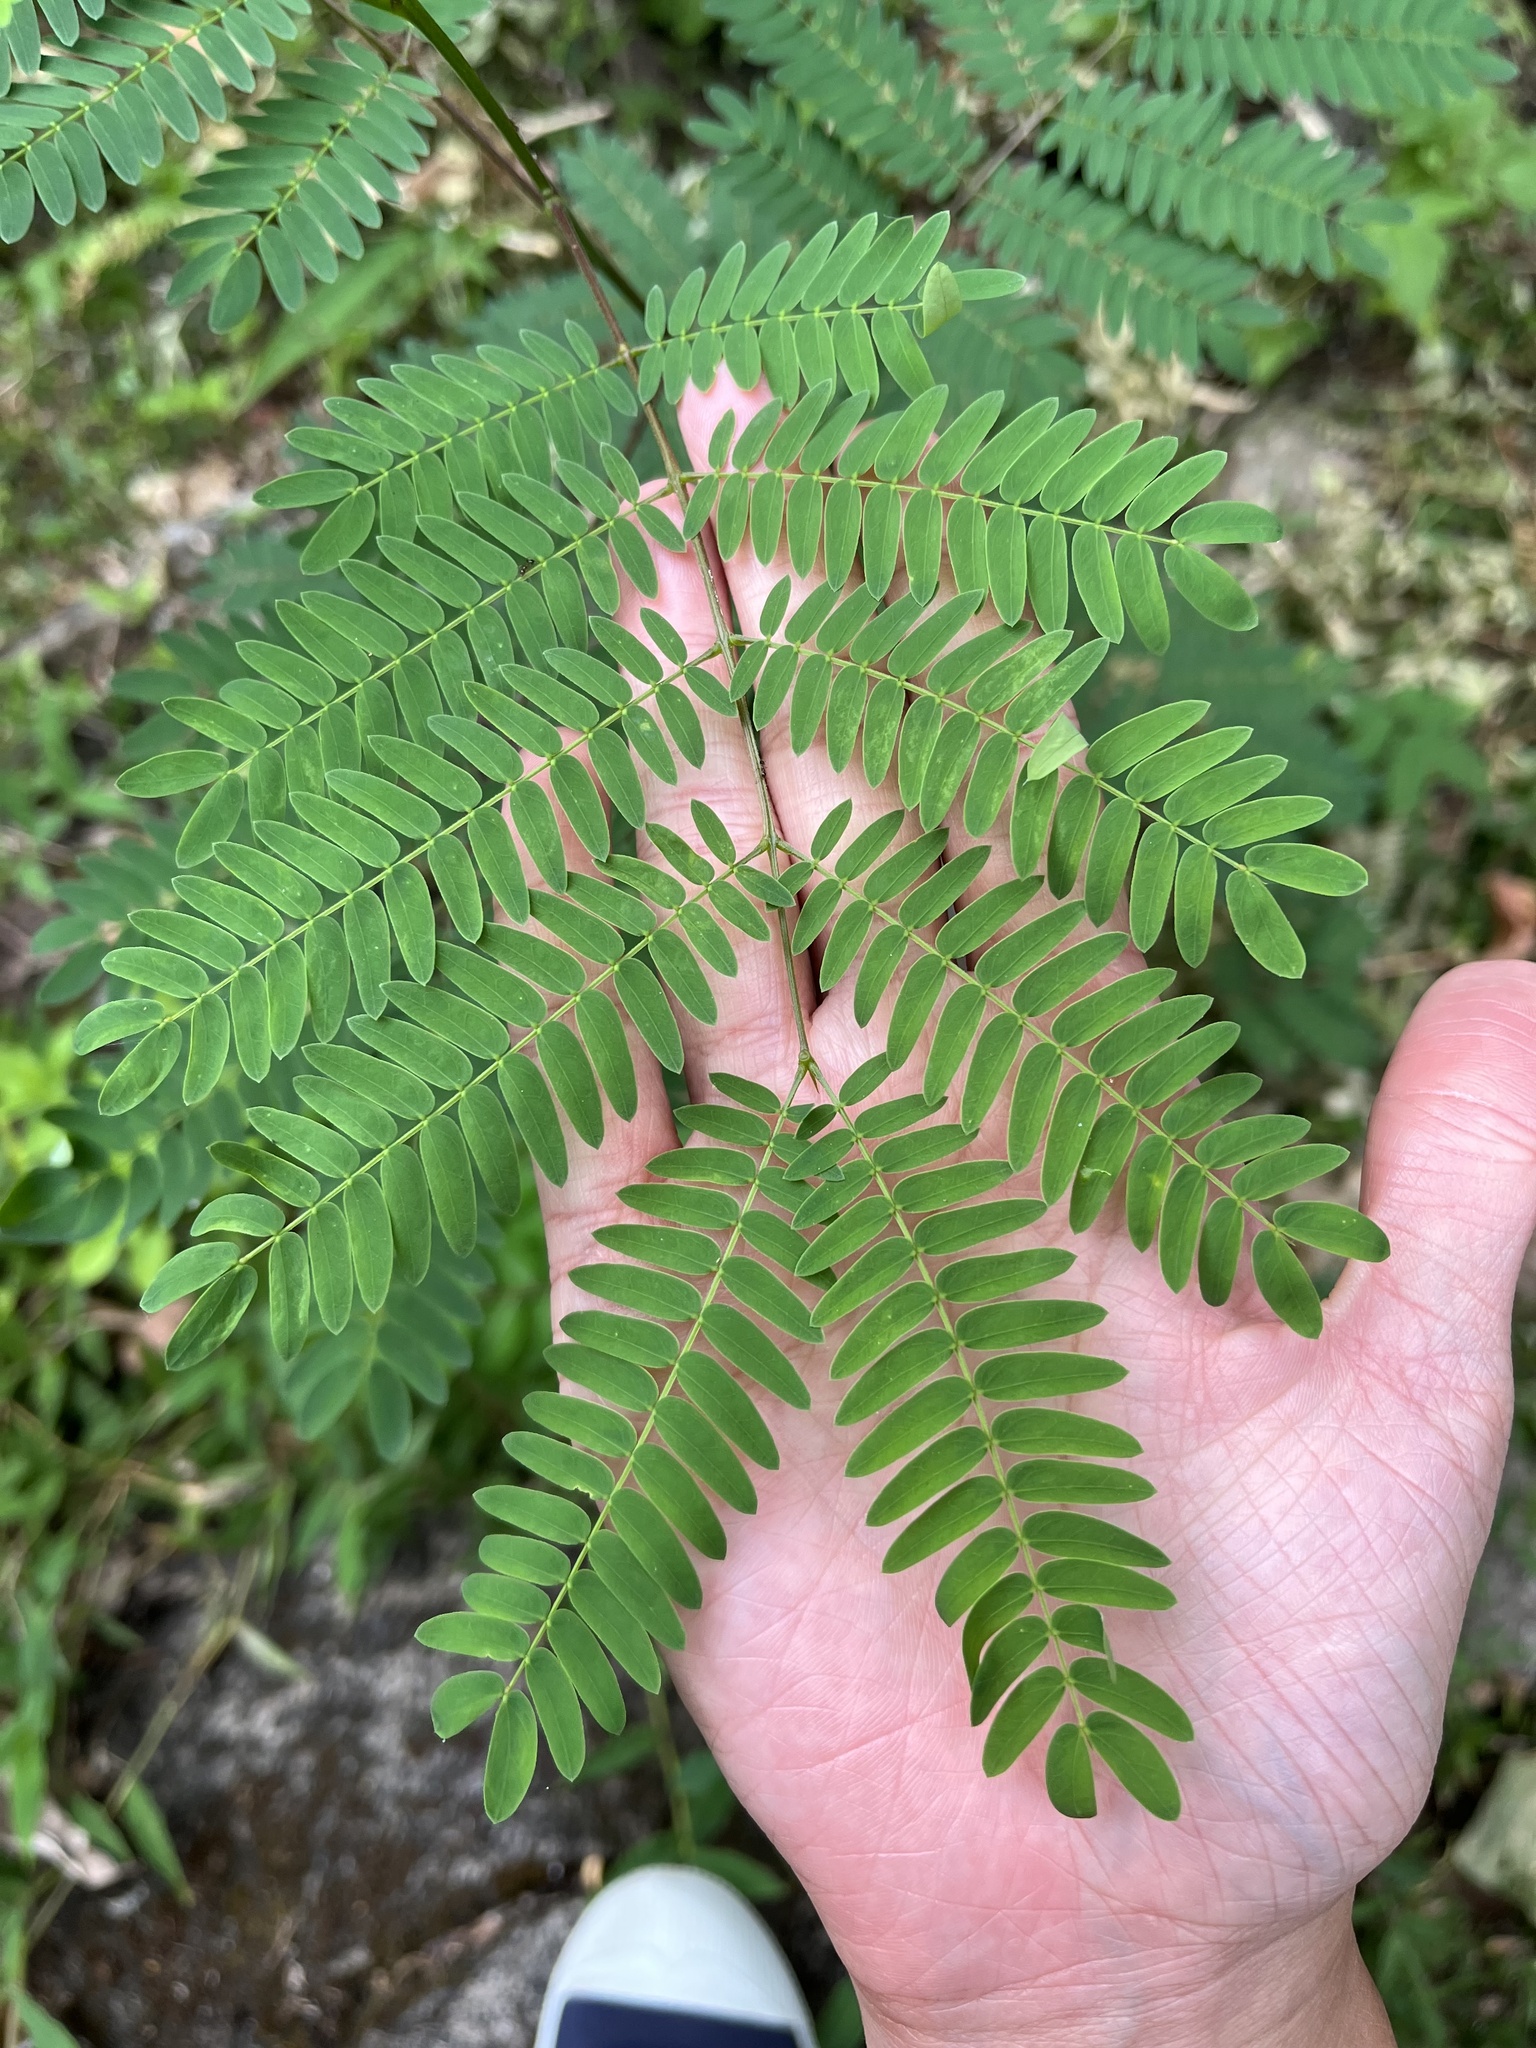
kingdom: Plantae
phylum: Tracheophyta
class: Magnoliopsida
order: Fabales
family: Fabaceae
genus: Leucaena
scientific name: Leucaena leucocephala
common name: White leadtree
